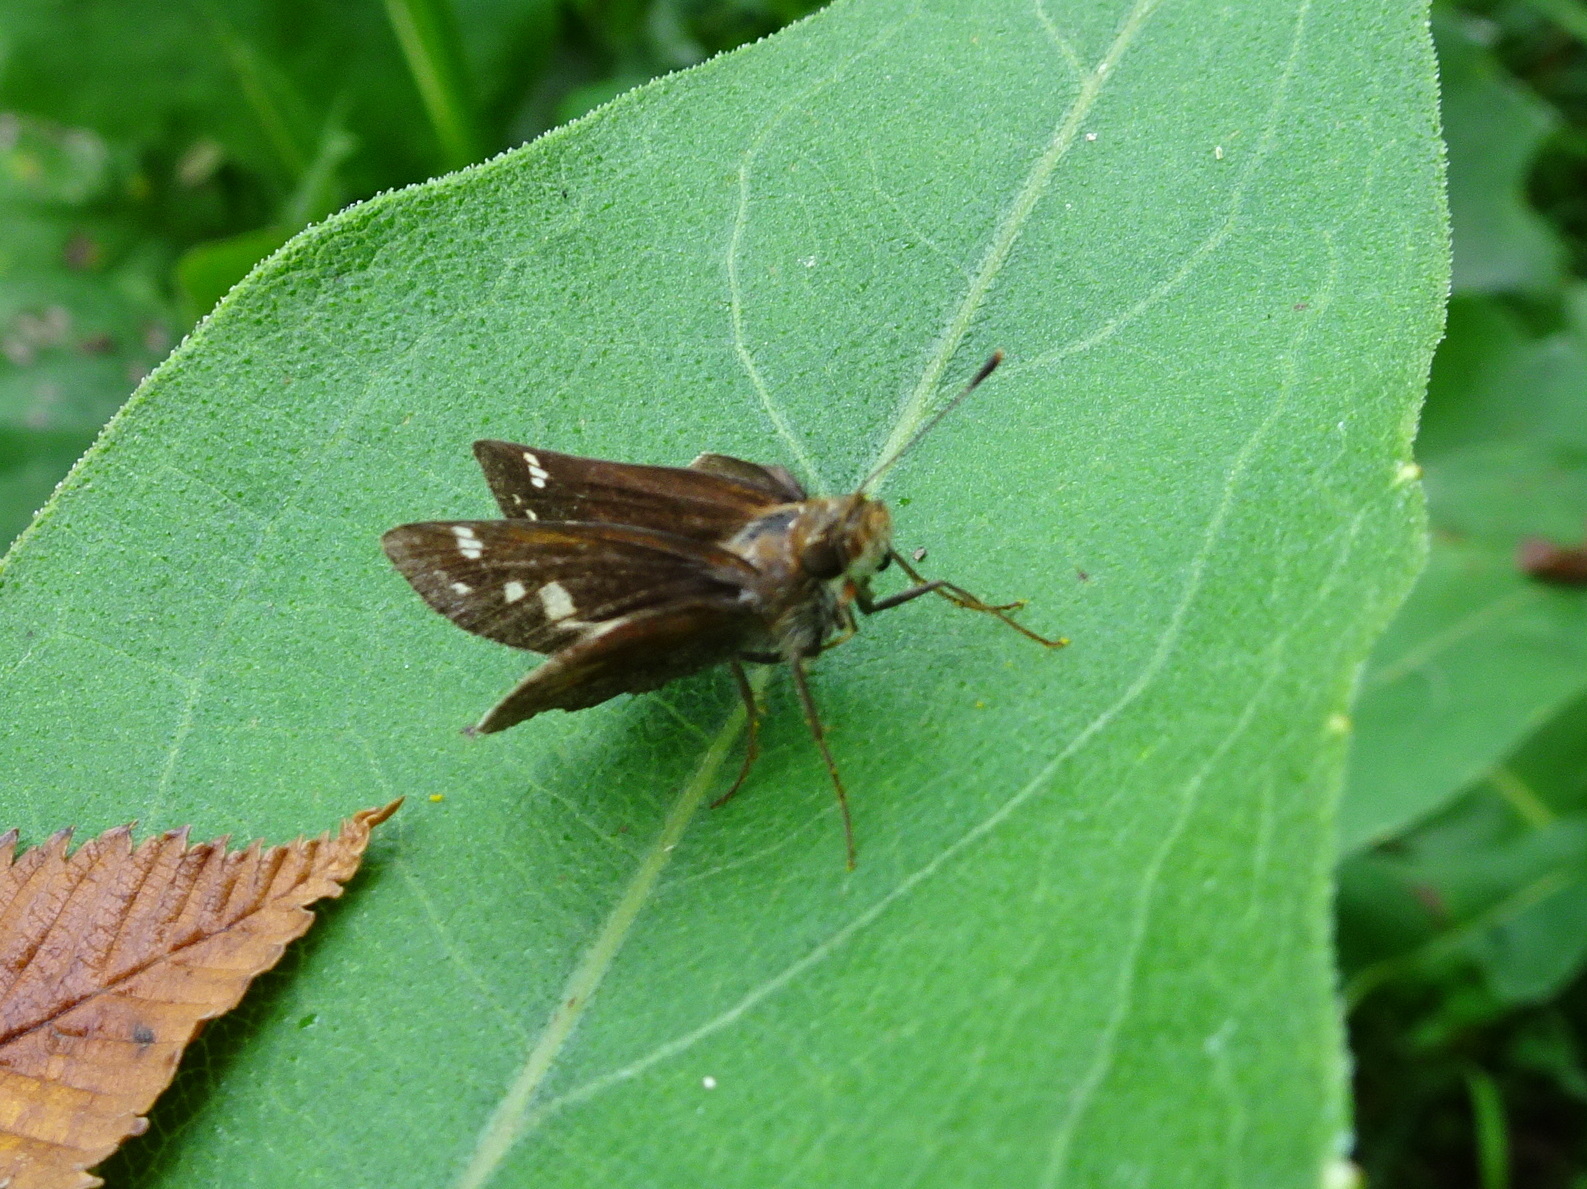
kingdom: Animalia
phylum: Arthropoda
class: Insecta
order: Lepidoptera
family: Hesperiidae
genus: Lon
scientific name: Lon zabulon
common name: Zabulon skipper
